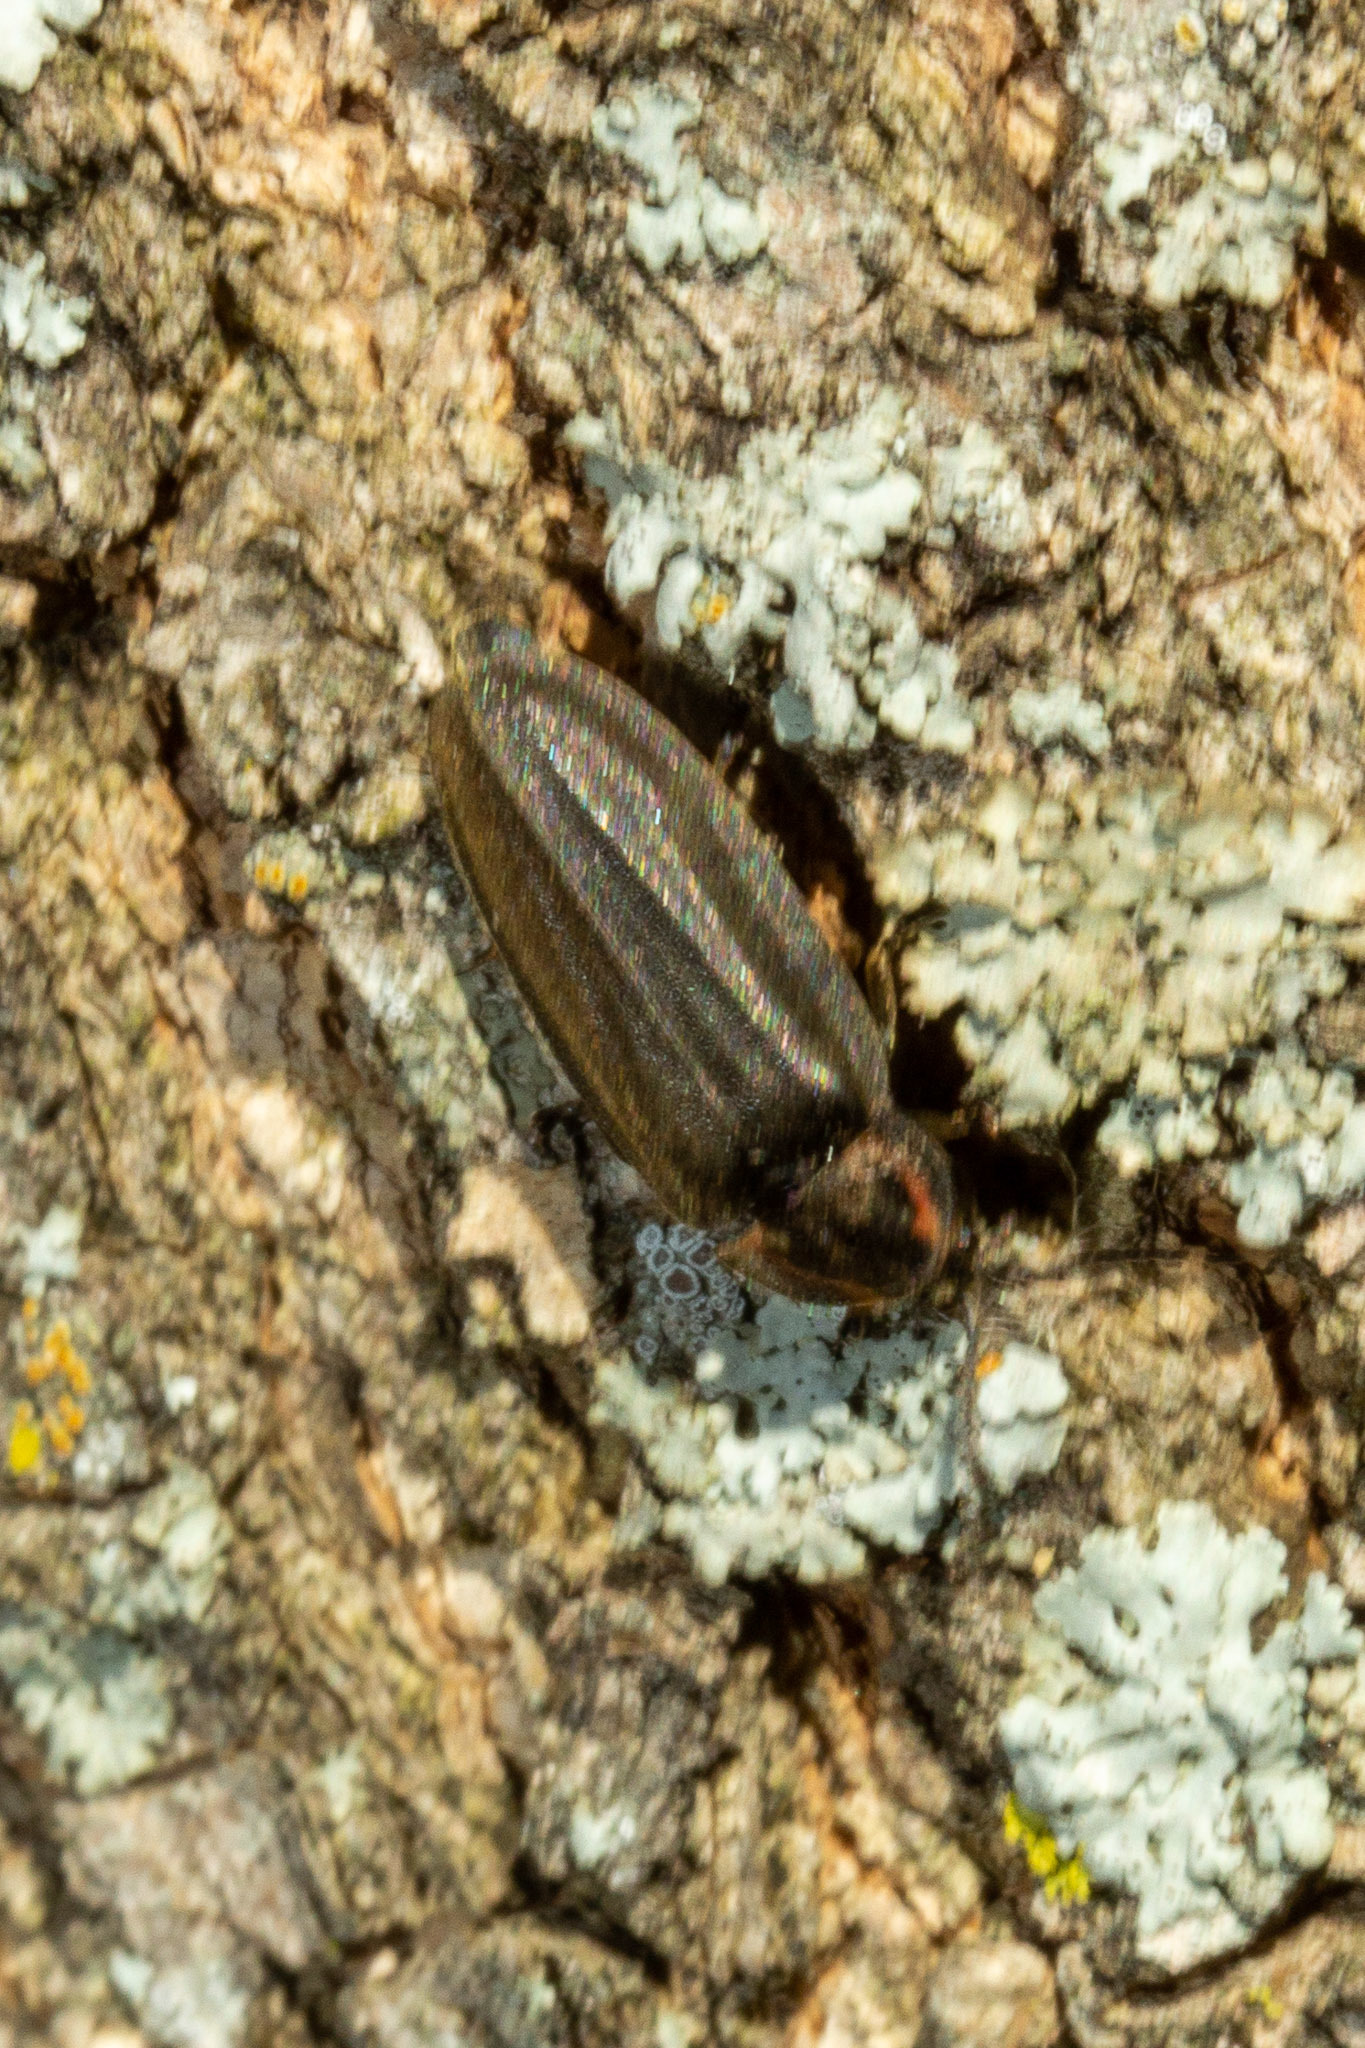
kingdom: Animalia
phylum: Arthropoda
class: Insecta
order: Coleoptera
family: Lampyridae
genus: Photinus
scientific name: Photinus corrusca
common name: Winter firefly
